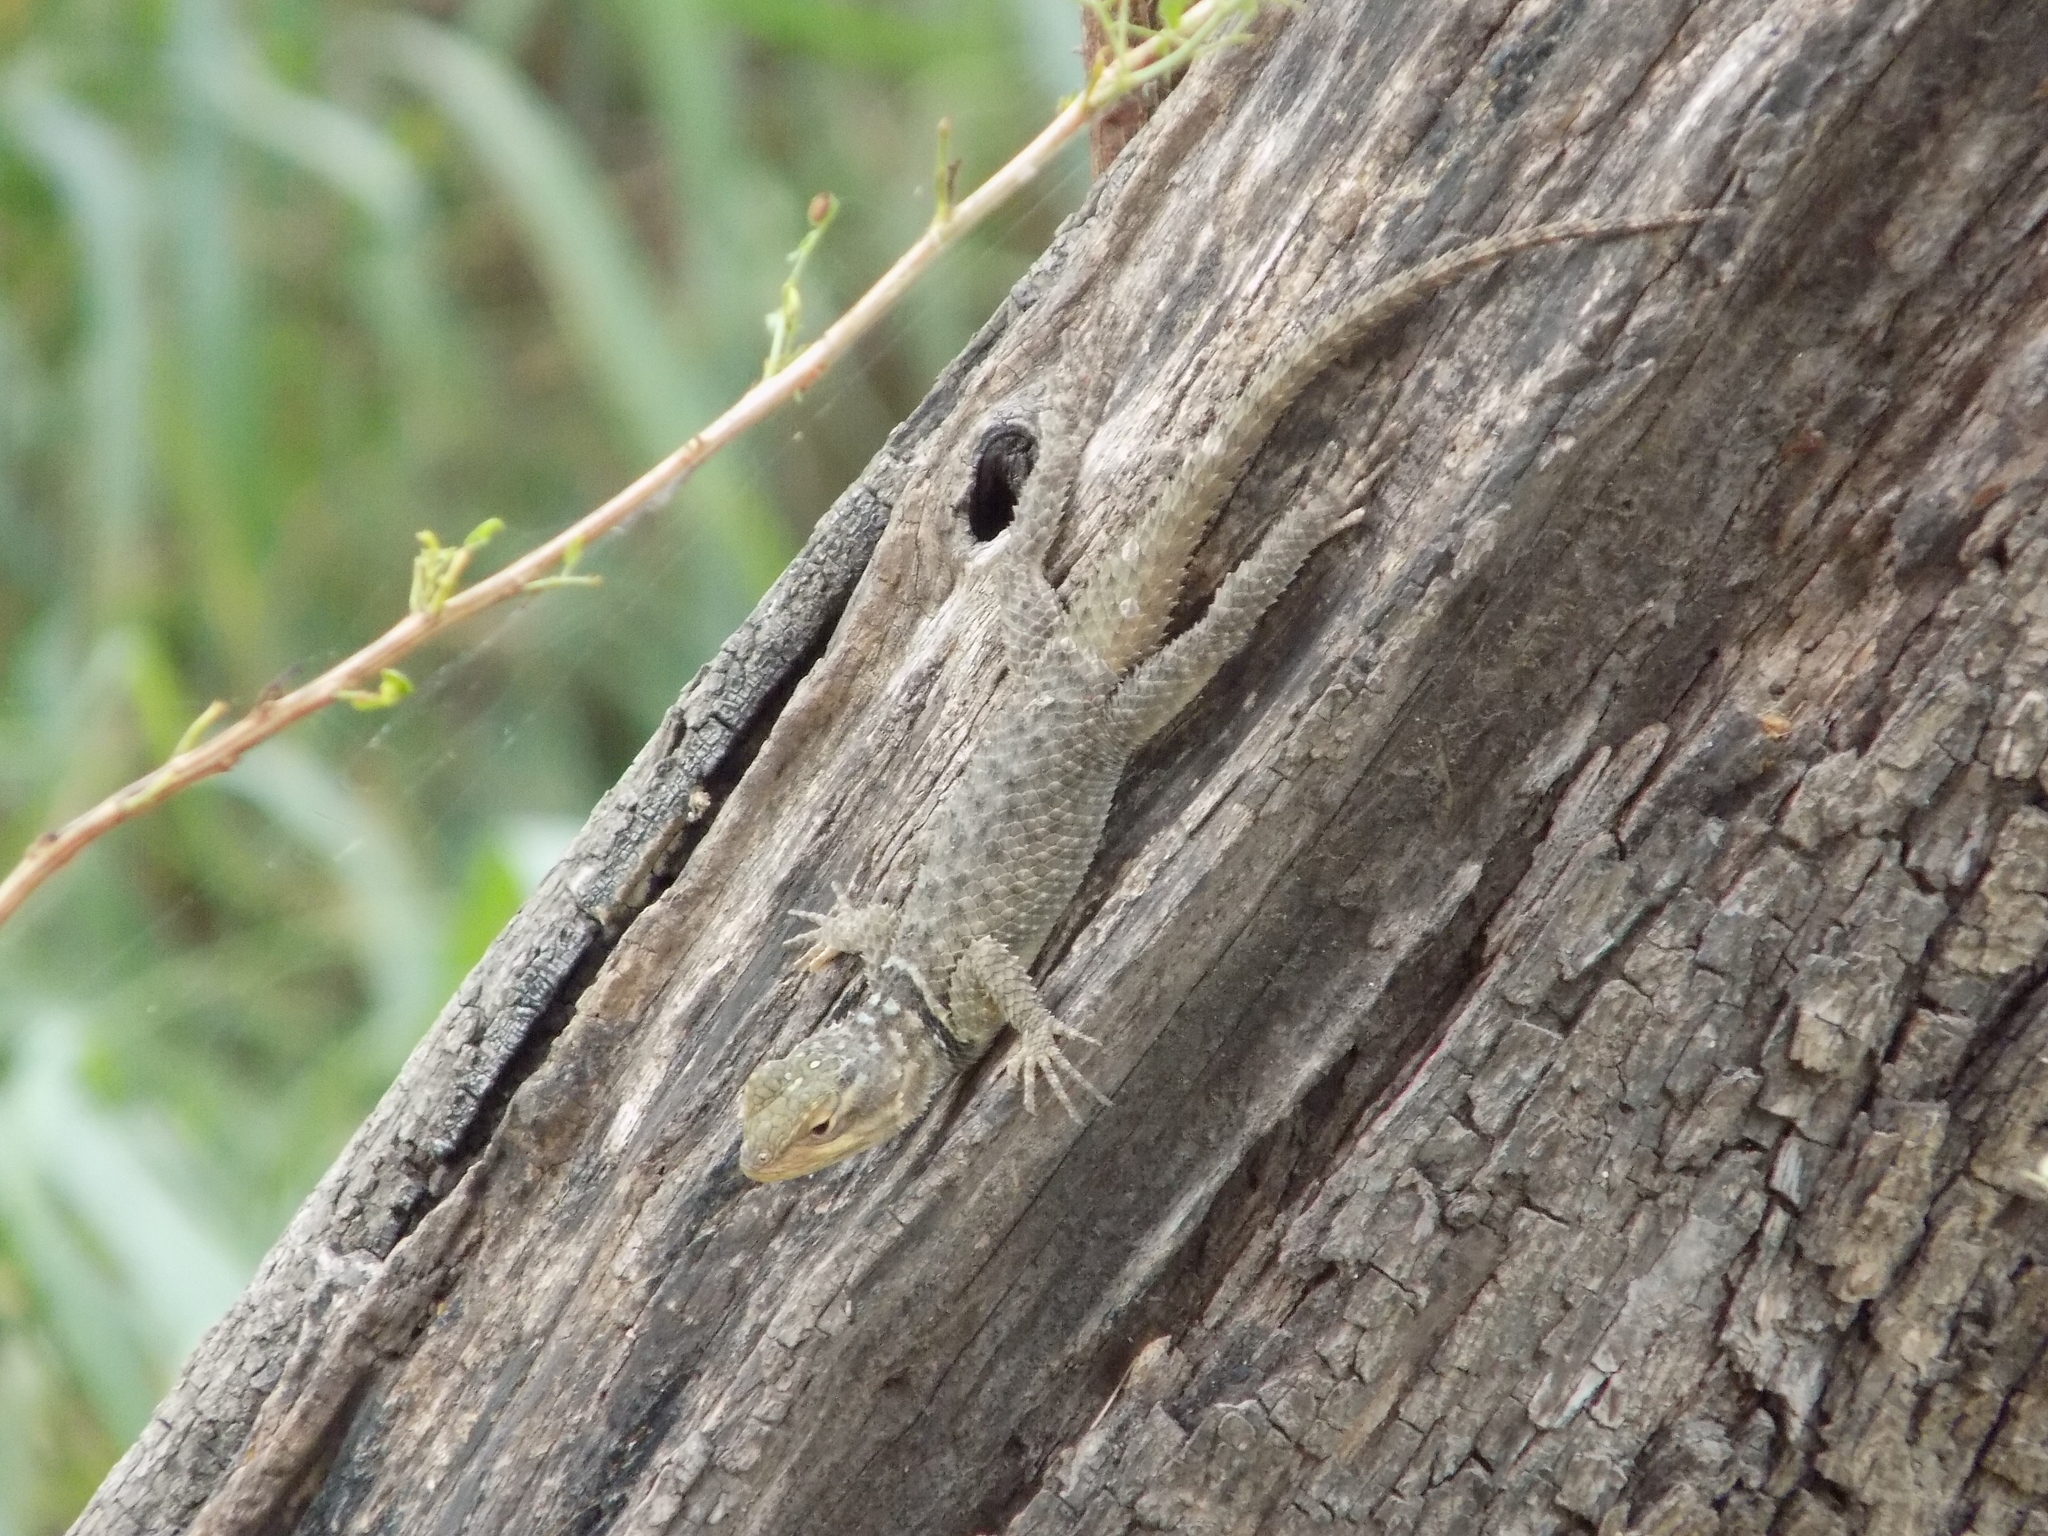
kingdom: Animalia
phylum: Chordata
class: Squamata
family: Phrynosomatidae
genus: Sceloporus
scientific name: Sceloporus cyanogenys
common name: Blue spiny lizard
